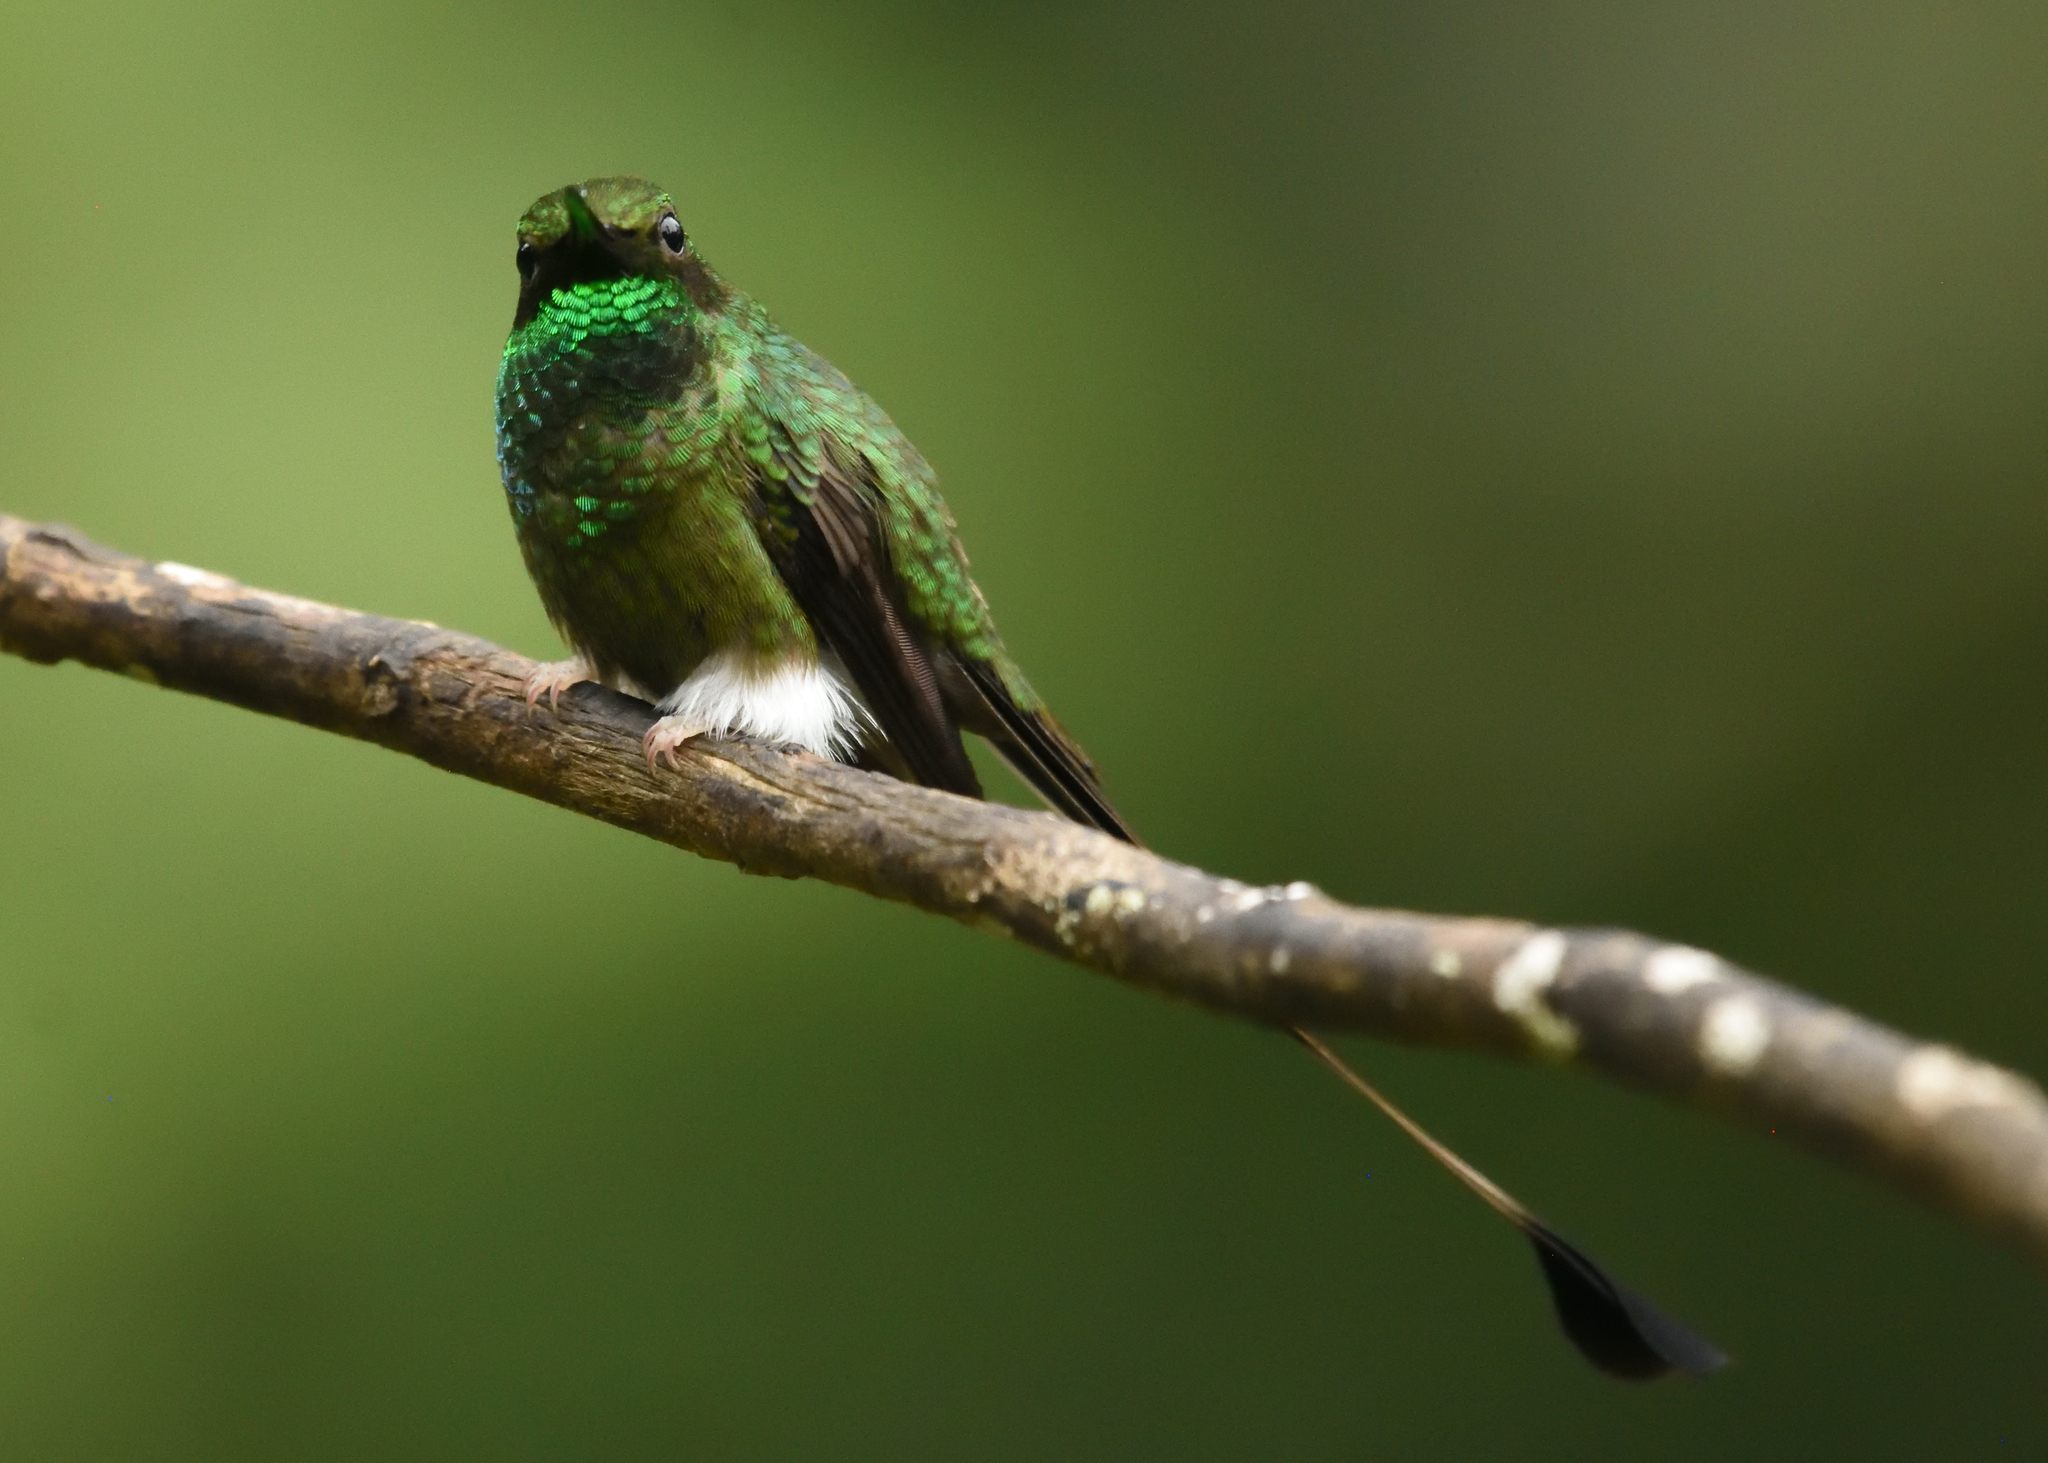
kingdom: Animalia
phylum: Chordata
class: Aves
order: Apodiformes
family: Trochilidae
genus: Ocreatus
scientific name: Ocreatus underwoodii
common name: Booted racket-tail
